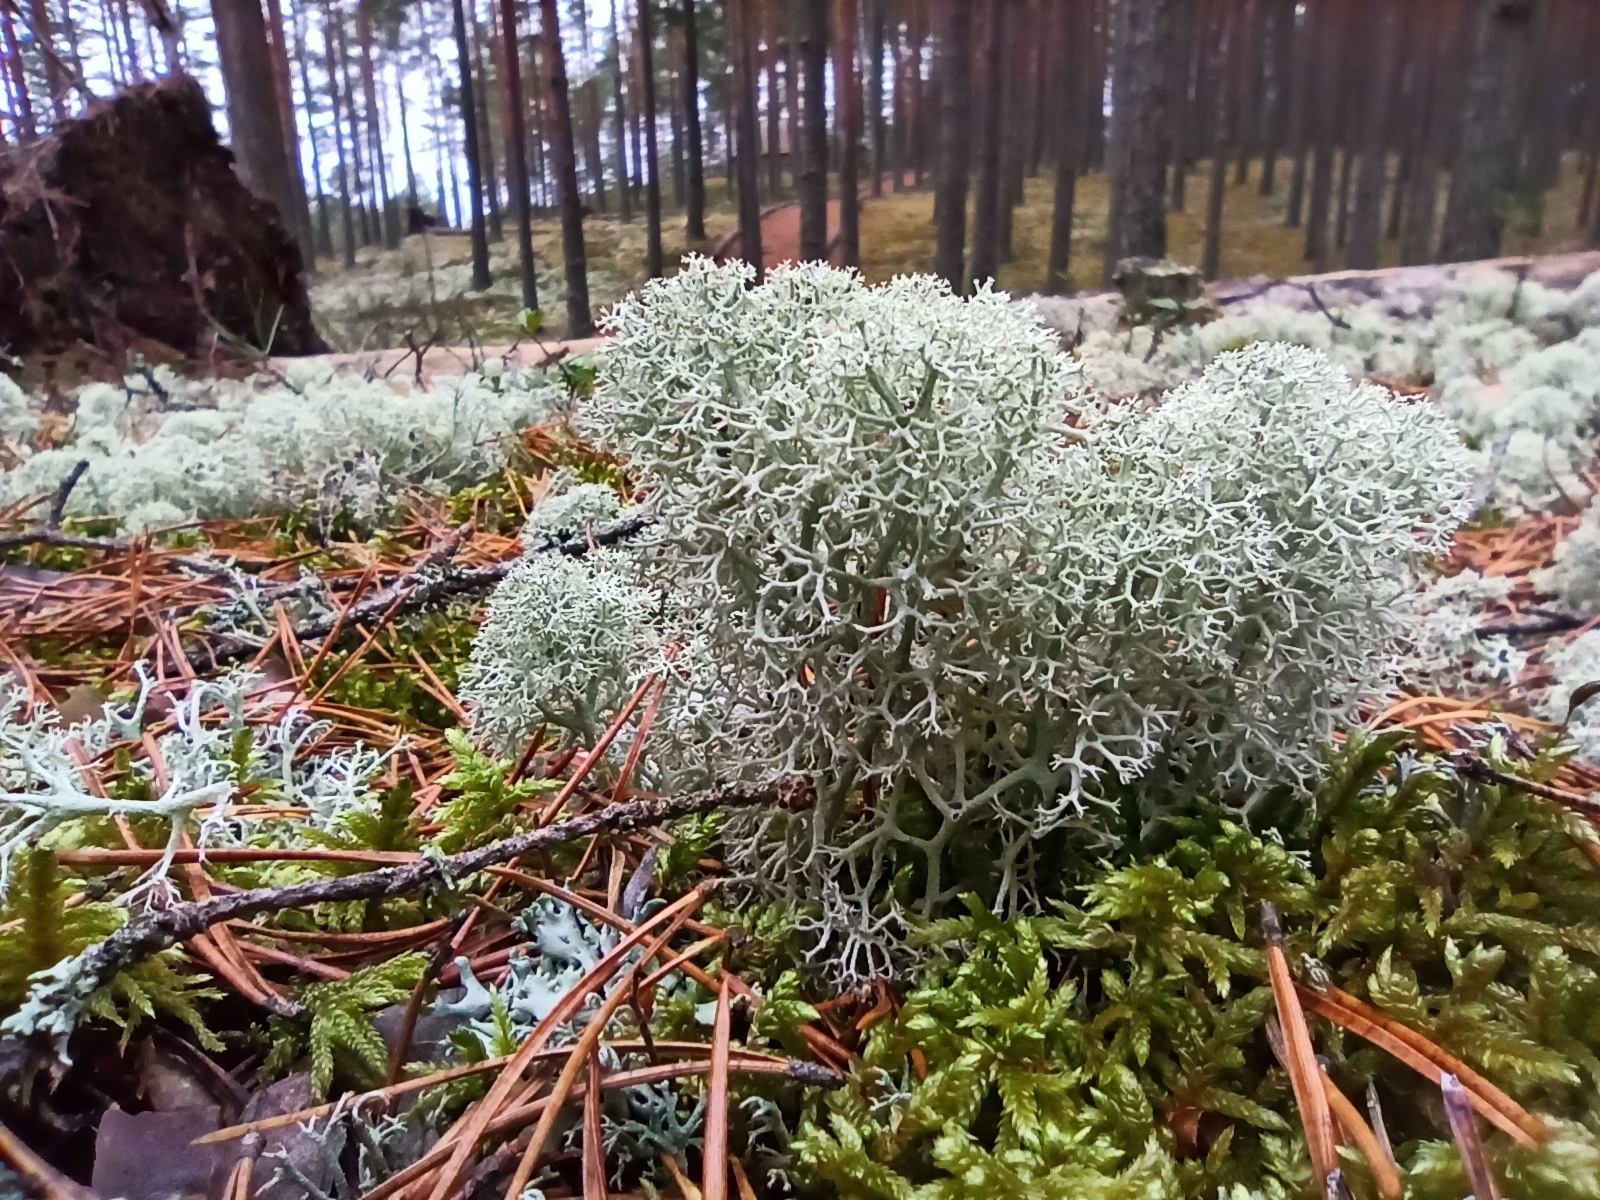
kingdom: Fungi
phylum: Ascomycota
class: Lecanoromycetes
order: Lecanorales
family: Cladoniaceae
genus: Cladonia
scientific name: Cladonia stellaris
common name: Star-tipped reindeer lichen
